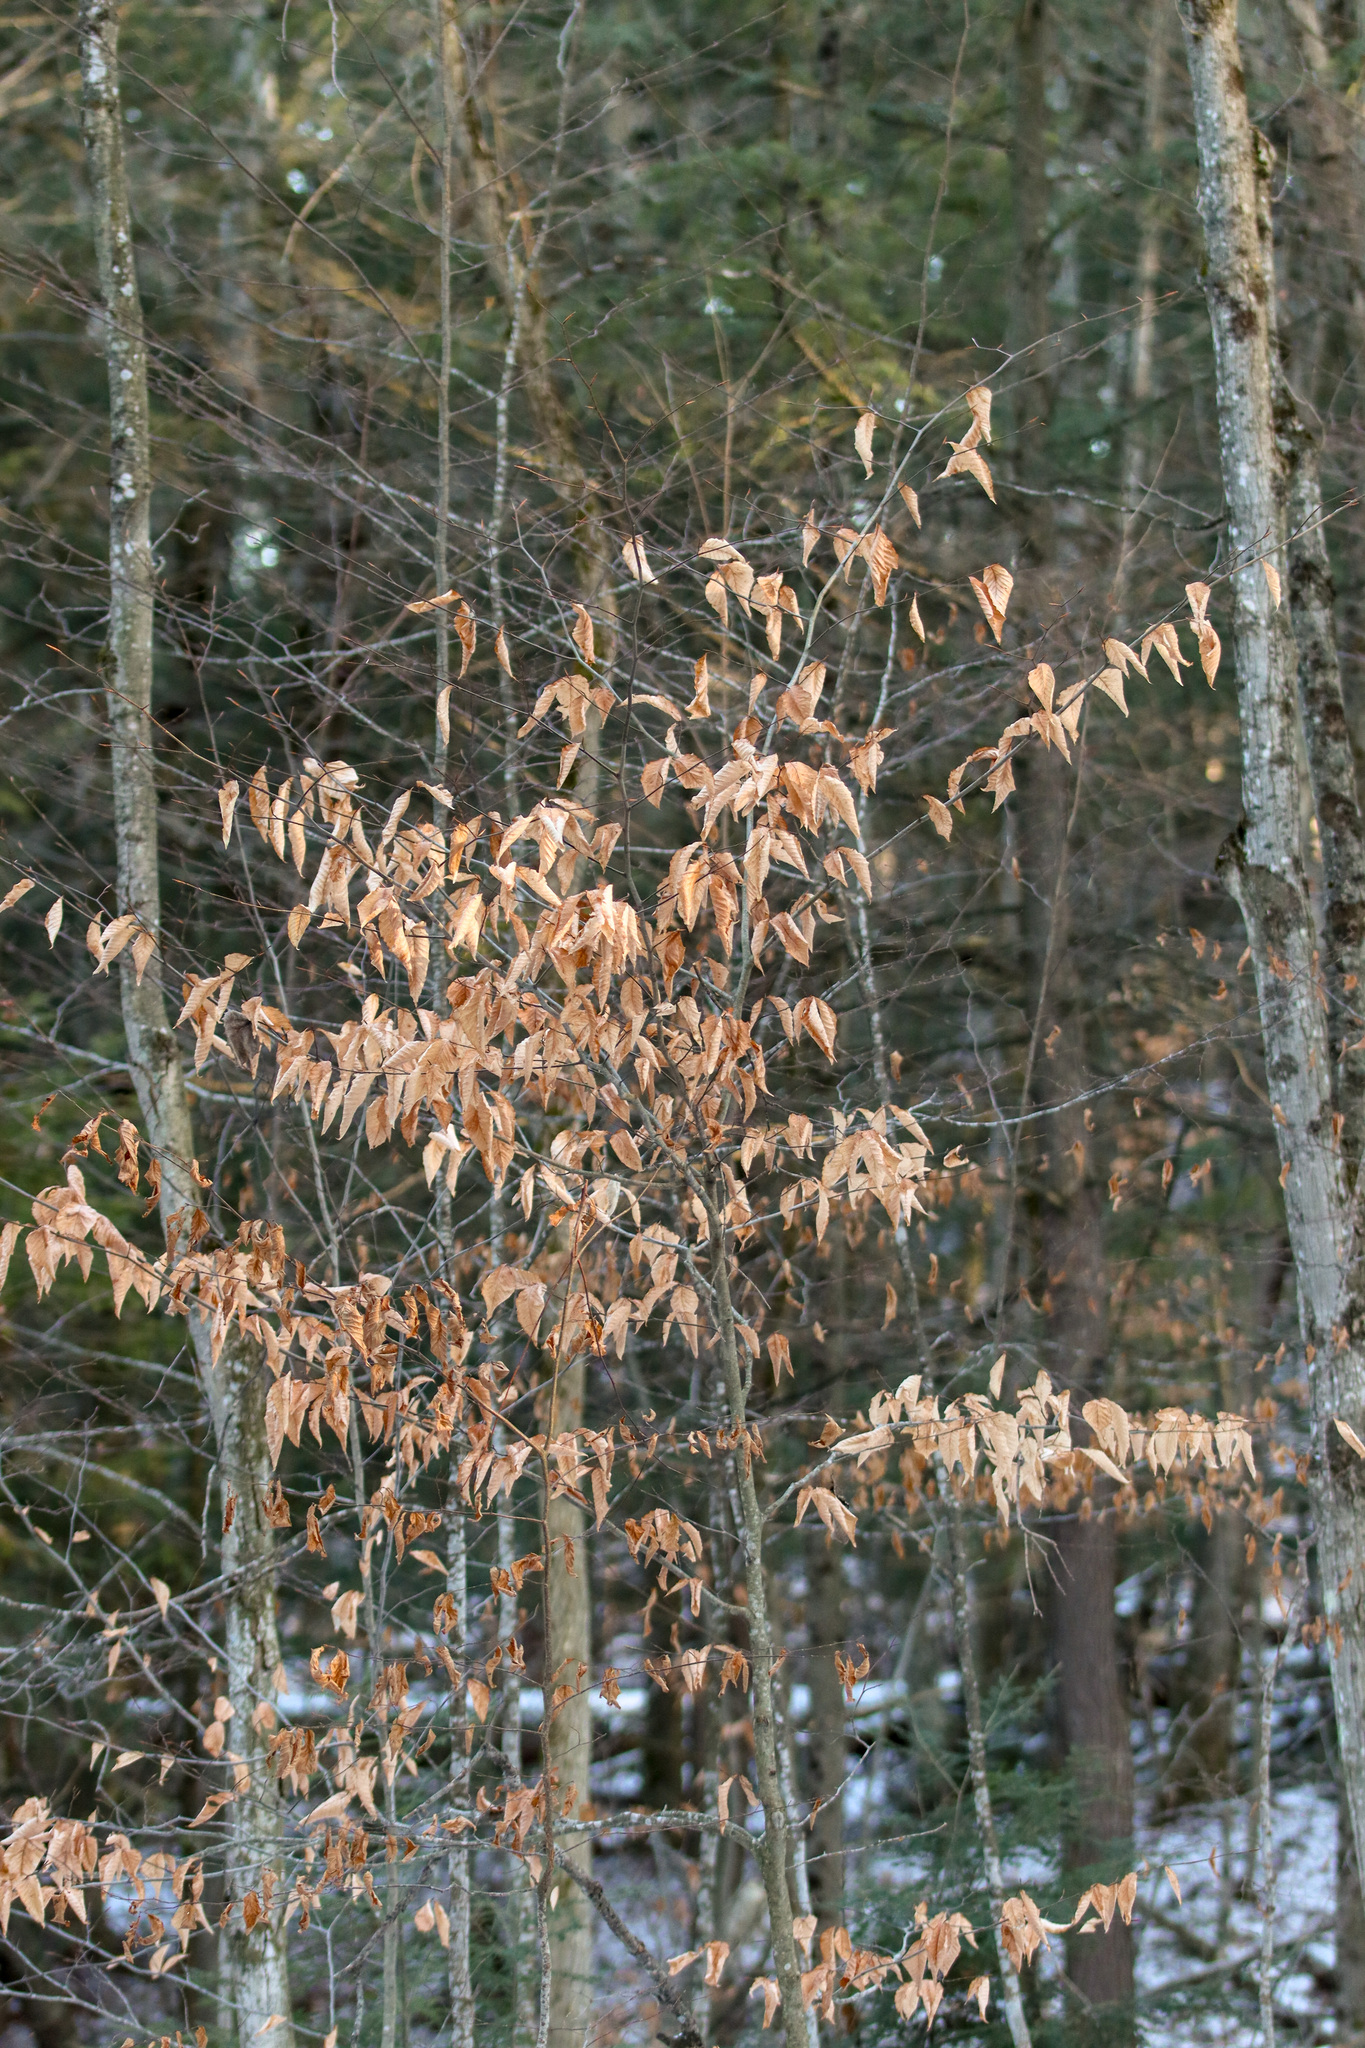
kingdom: Plantae
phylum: Tracheophyta
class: Magnoliopsida
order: Fagales
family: Fagaceae
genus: Fagus
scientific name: Fagus grandifolia
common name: American beech
